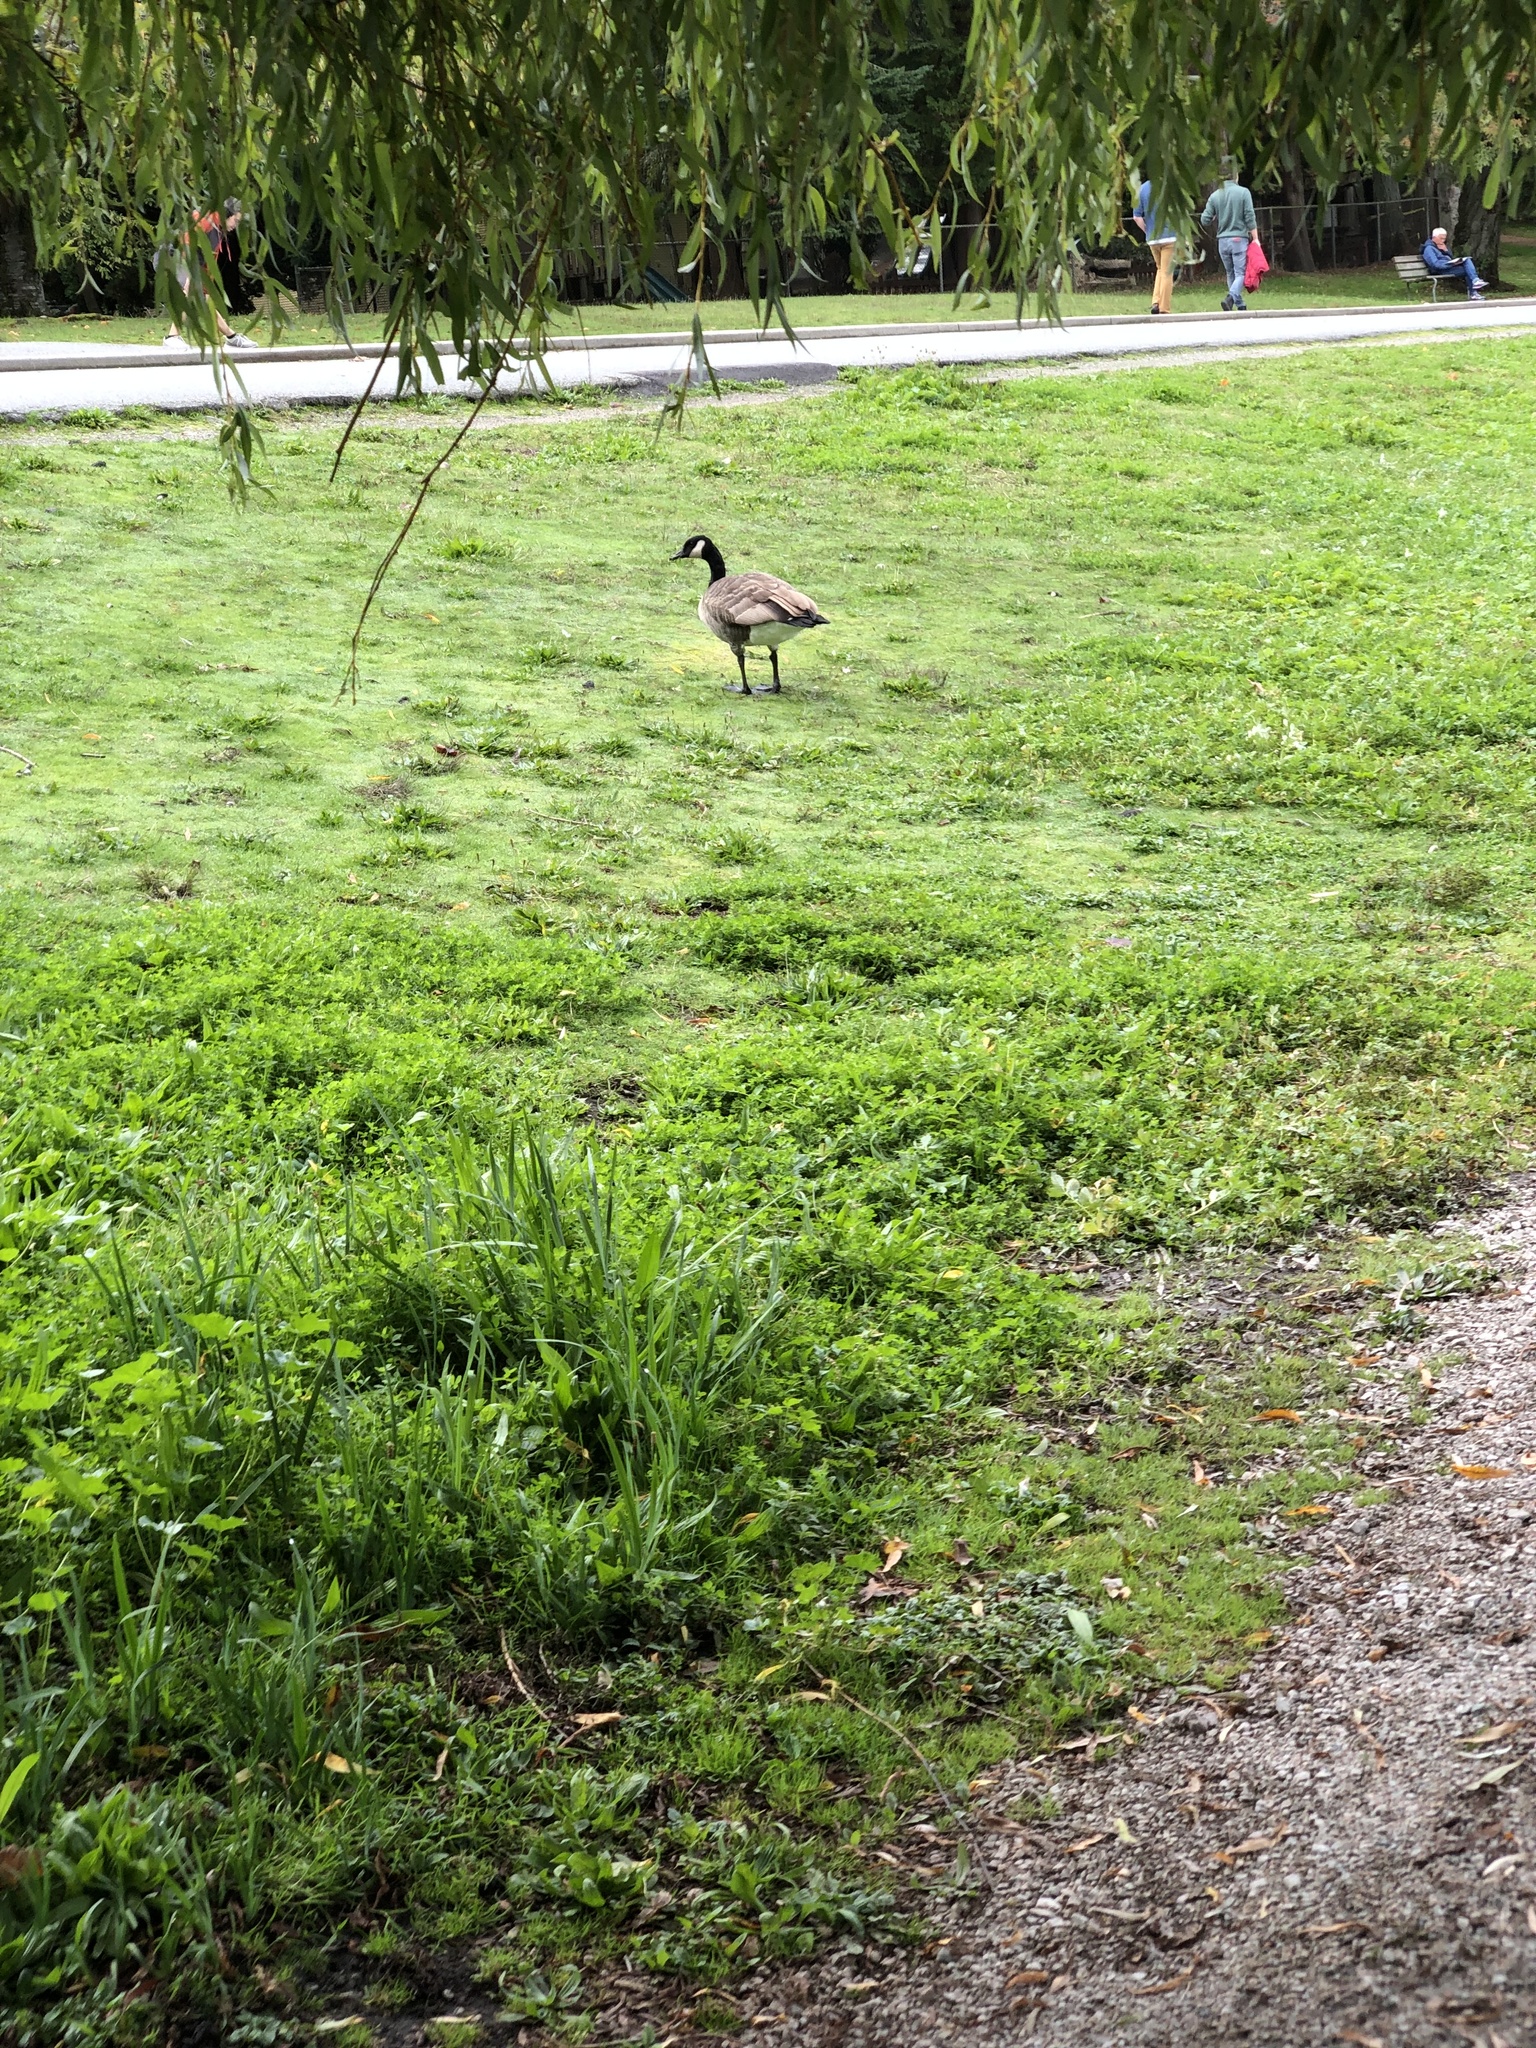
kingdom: Animalia
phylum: Chordata
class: Aves
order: Anseriformes
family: Anatidae
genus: Branta
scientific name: Branta canadensis
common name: Canada goose
